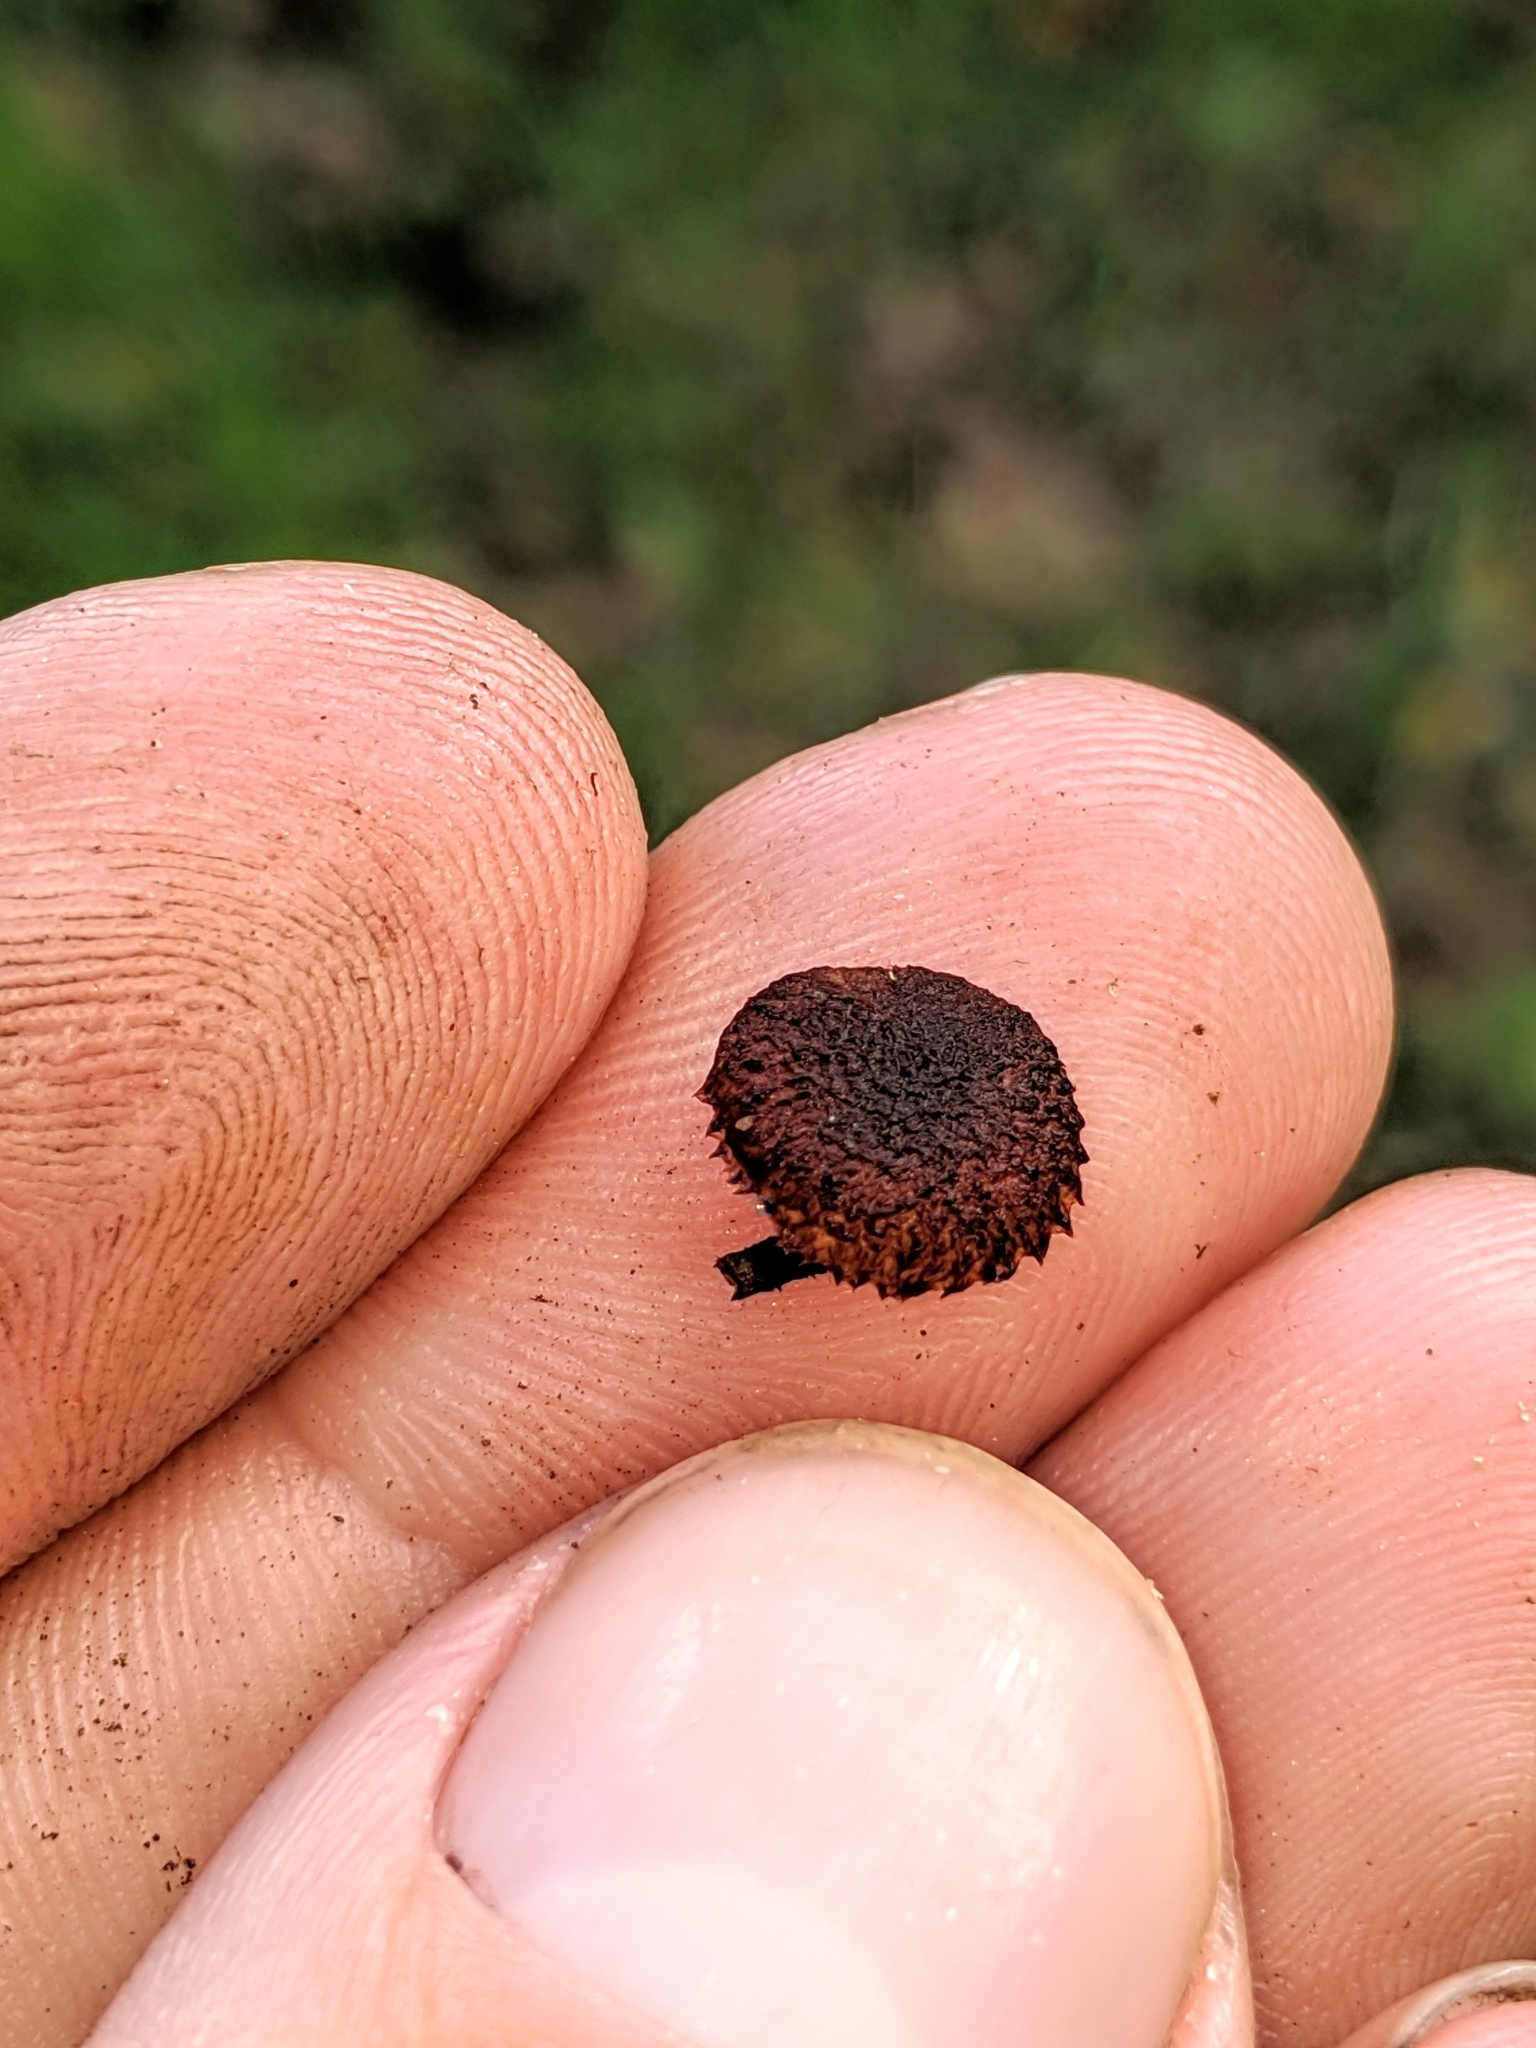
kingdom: Fungi
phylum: Basidiomycota
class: Agaricomycetes
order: Agaricales
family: Tubariaceae
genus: Phaeomarasmius
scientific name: Phaeomarasmius erinaceus
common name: Hedgehog scalycap
